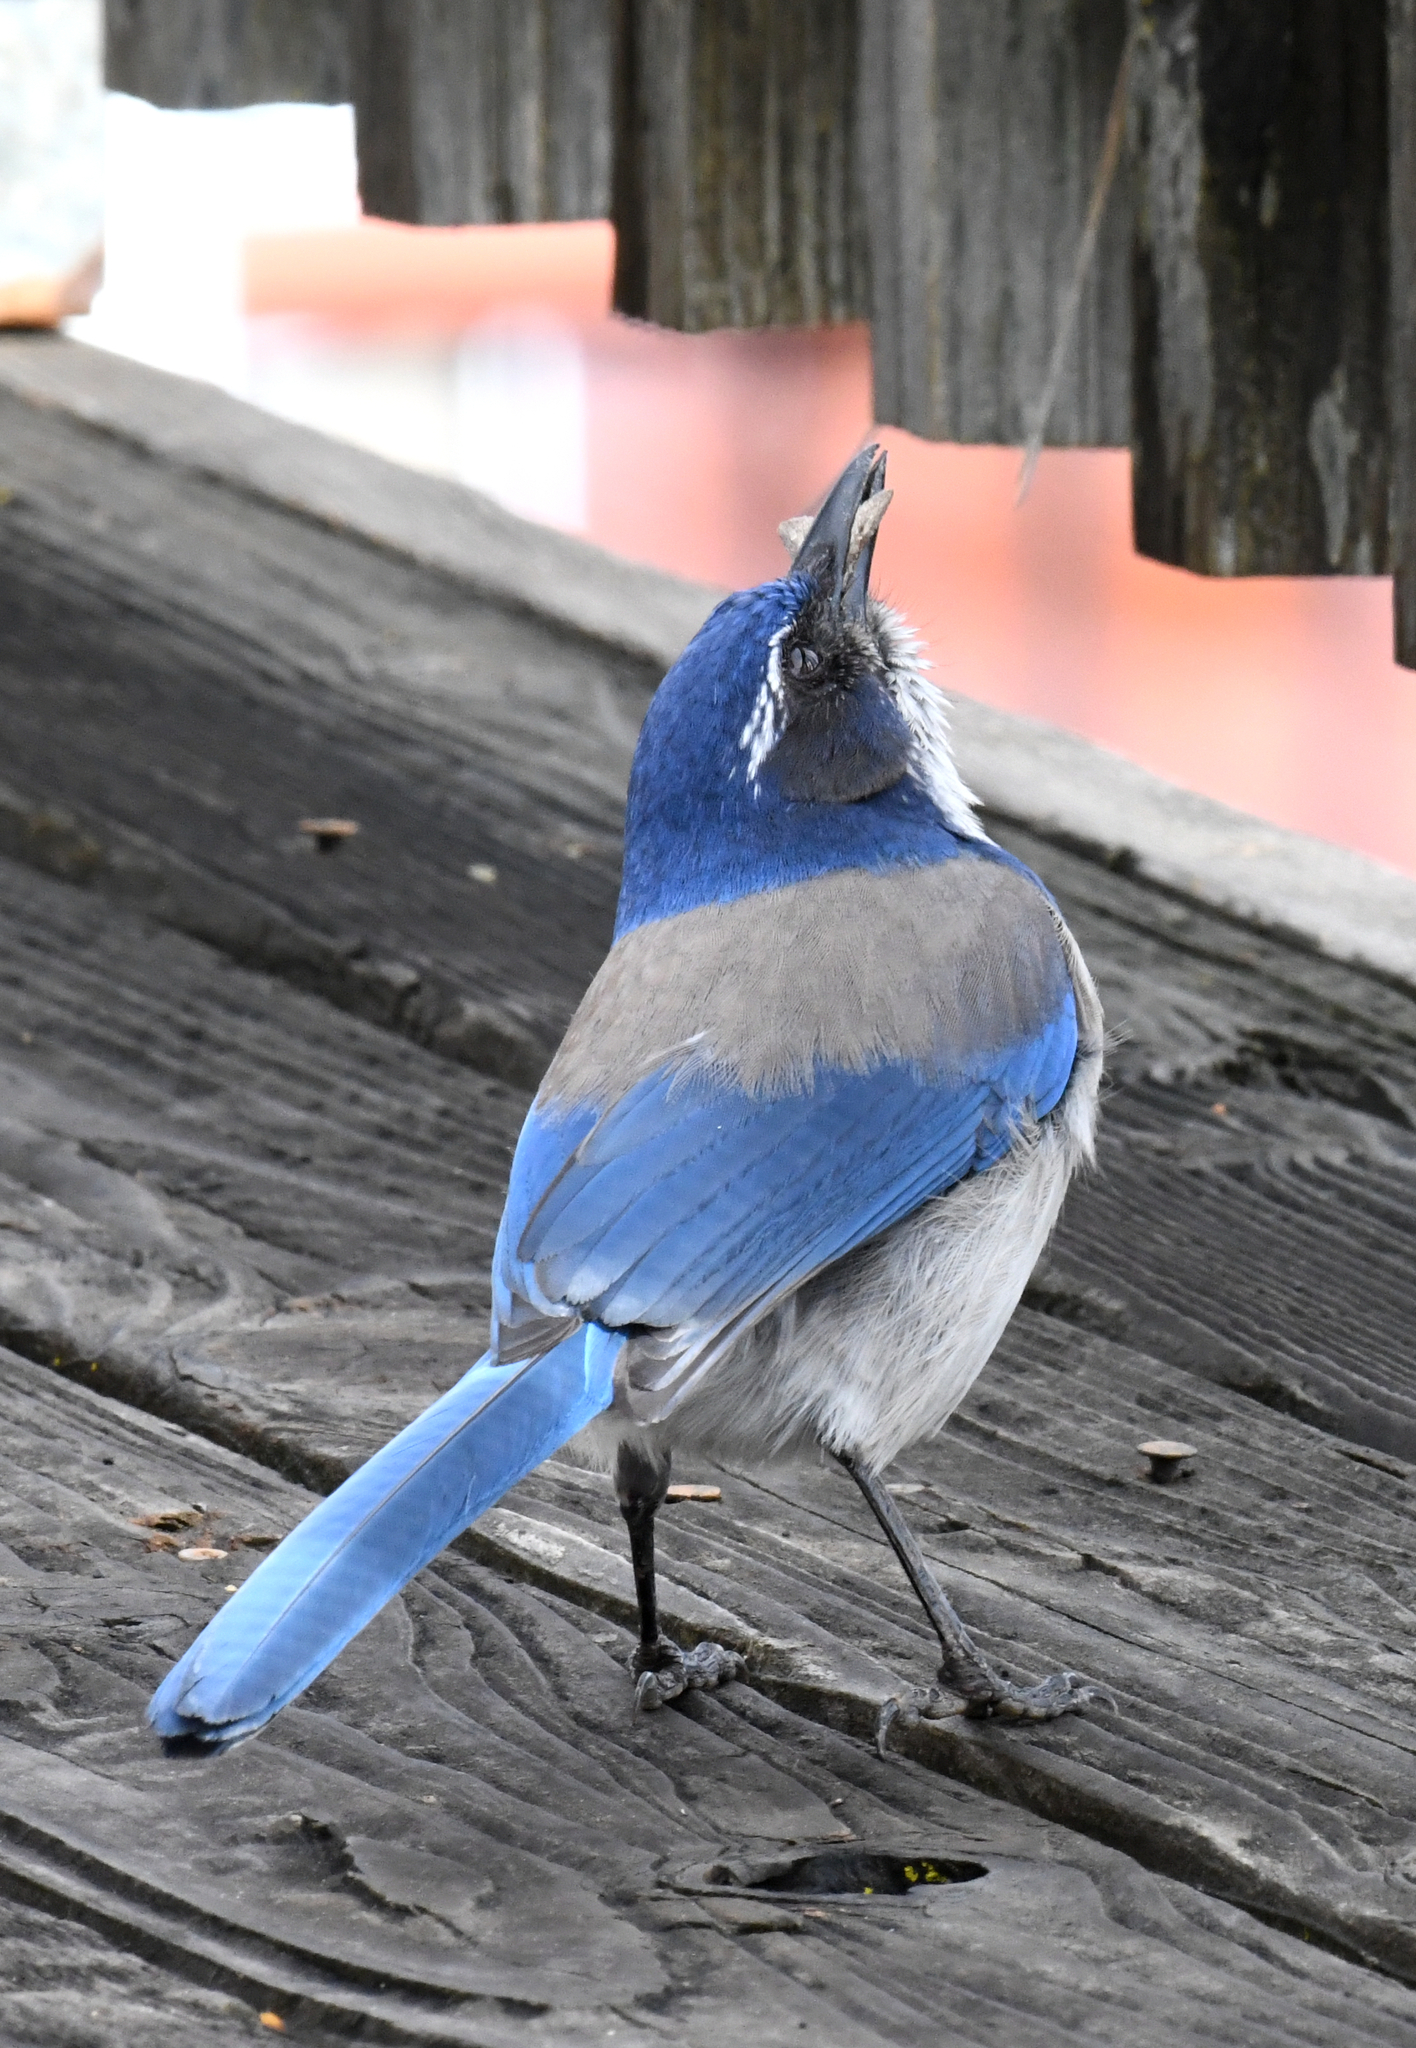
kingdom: Animalia
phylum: Chordata
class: Aves
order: Passeriformes
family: Corvidae
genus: Aphelocoma
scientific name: Aphelocoma californica
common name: California scrub-jay
